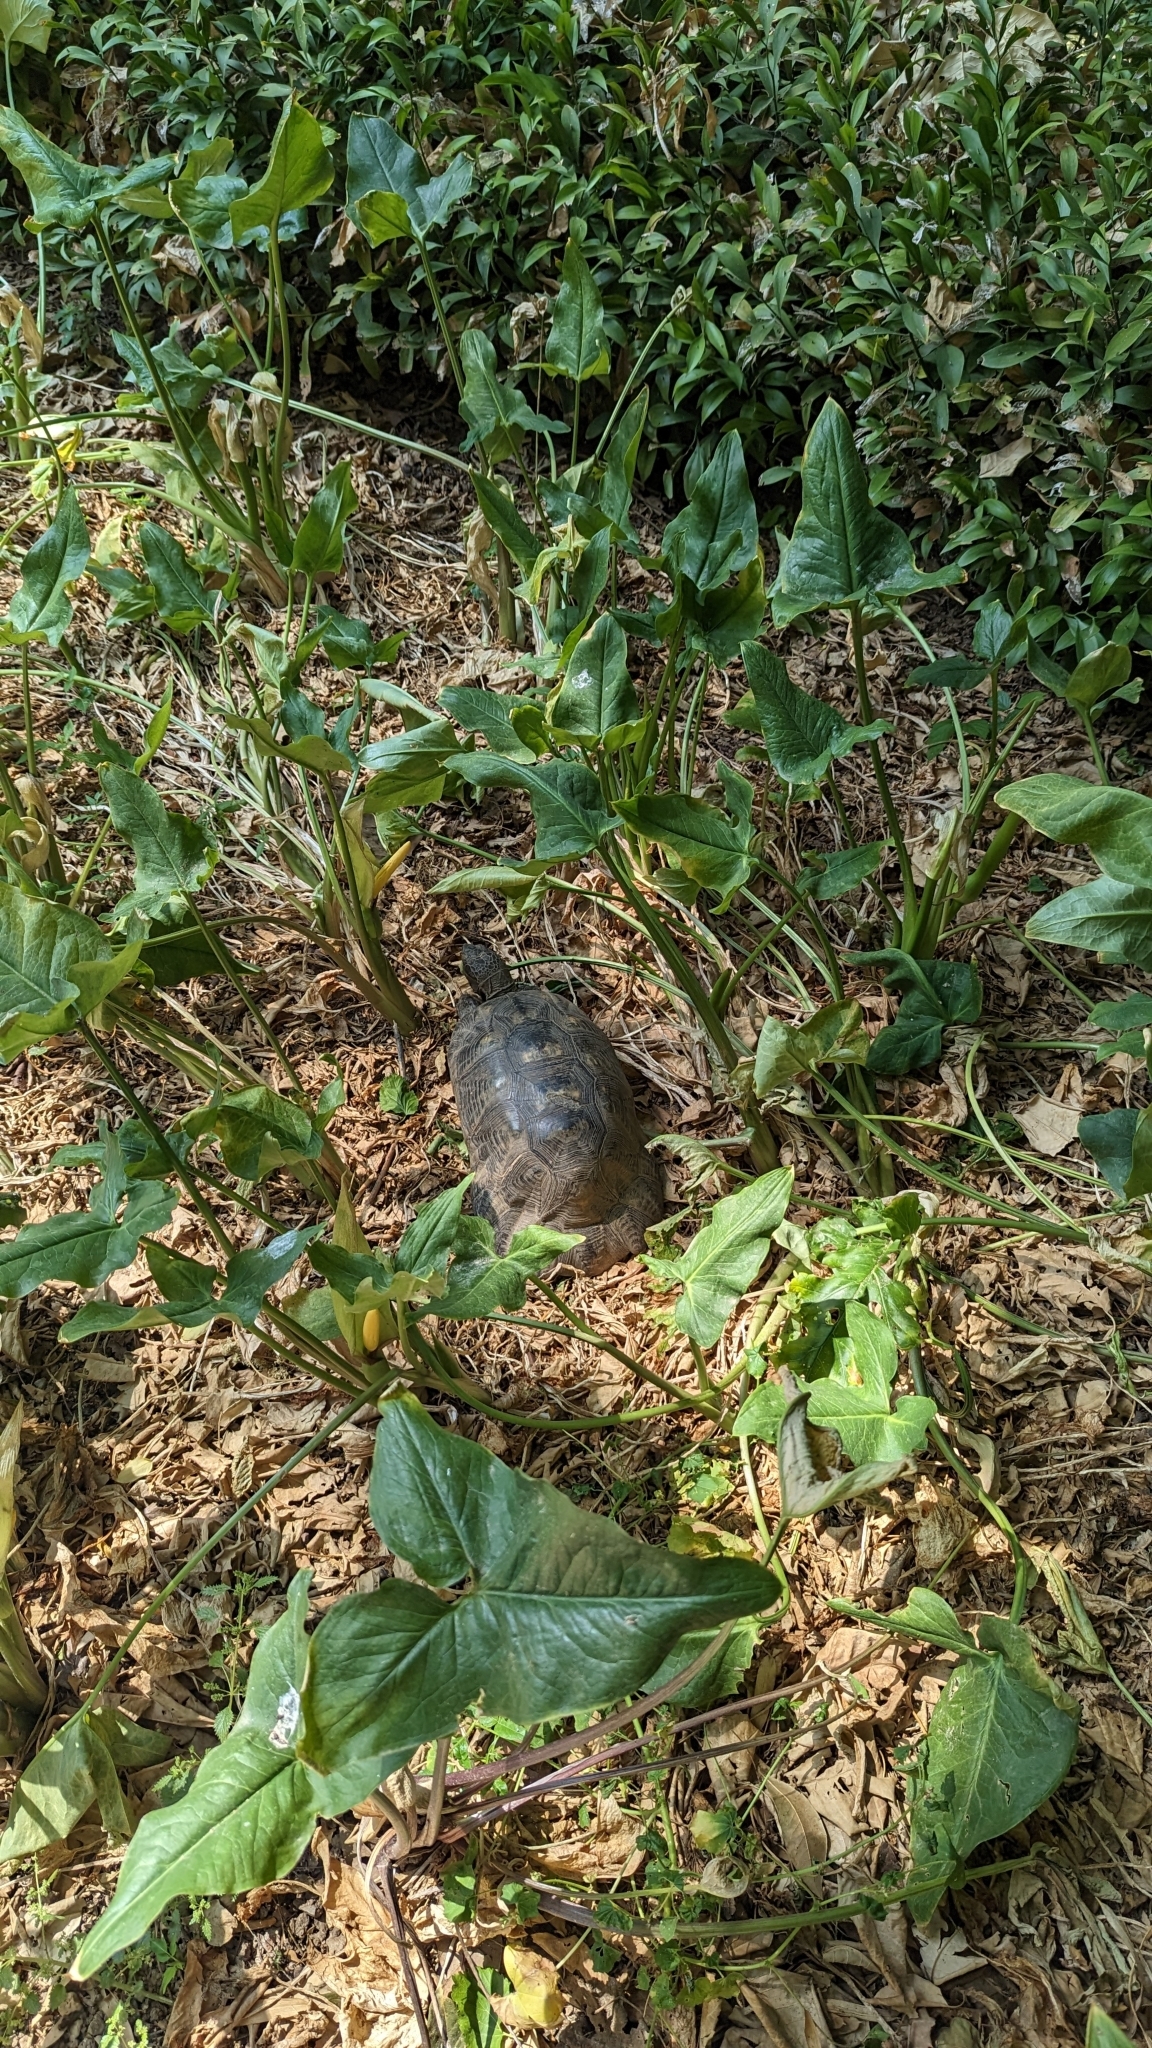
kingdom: Animalia
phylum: Chordata
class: Testudines
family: Testudinidae
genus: Testudo
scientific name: Testudo marginata
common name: Marginated tortoise
